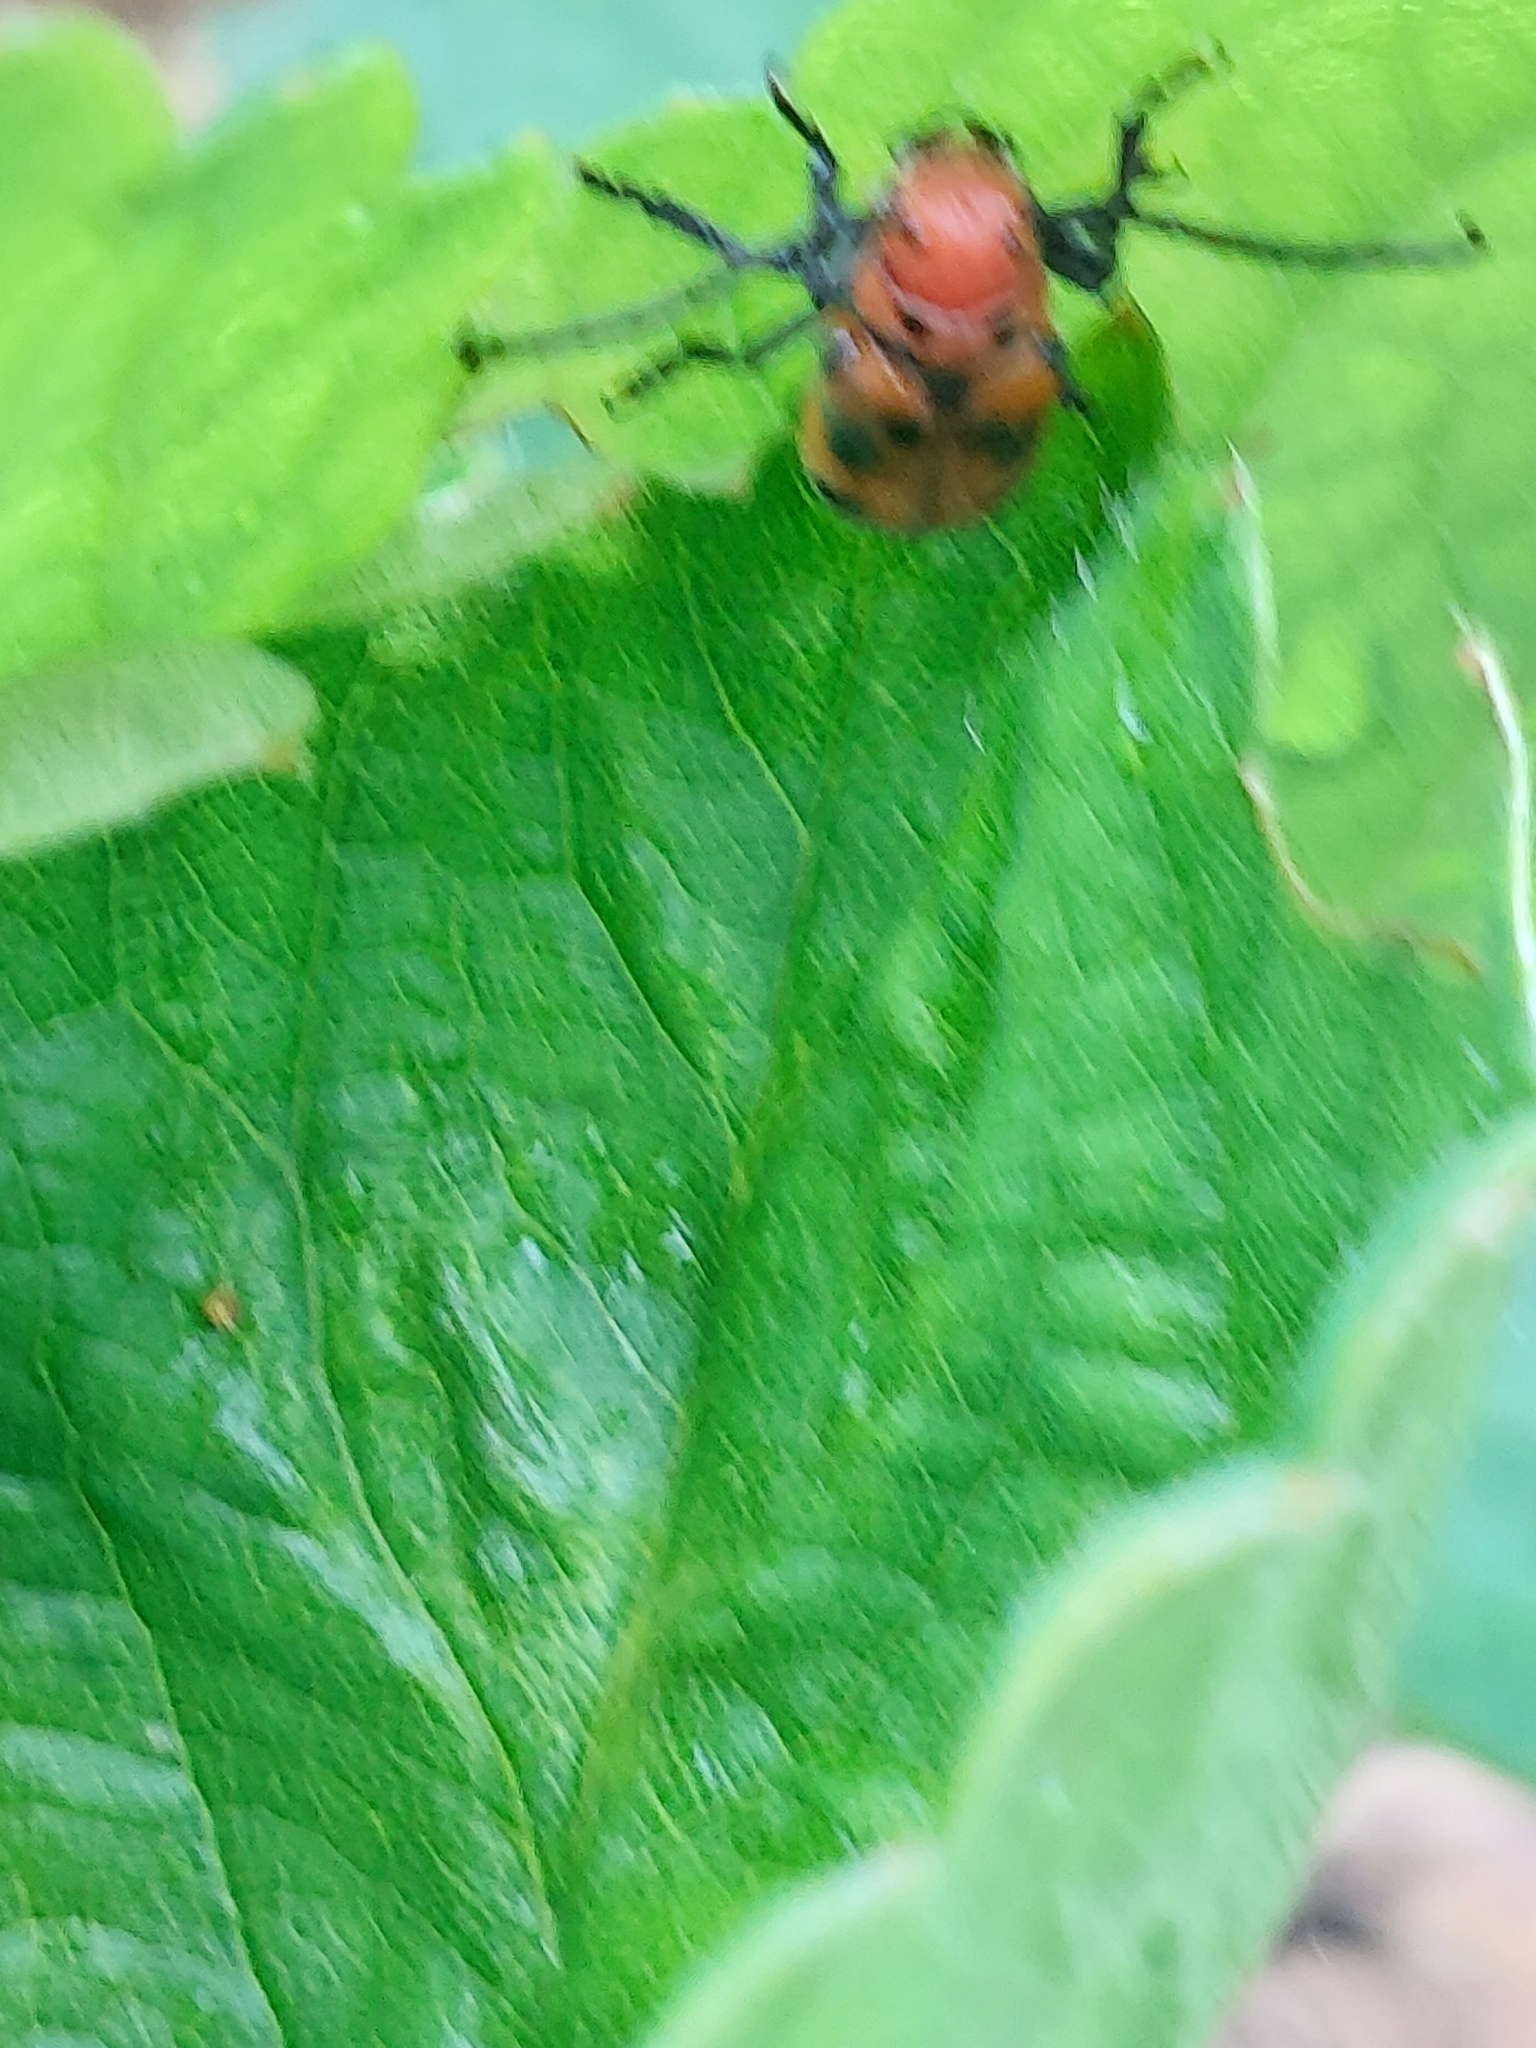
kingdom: Animalia
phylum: Arthropoda
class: Insecta
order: Coleoptera
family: Cerambycidae
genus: Tetraopes
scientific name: Tetraopes tetrophthalmus
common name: Red milkweed beetle
